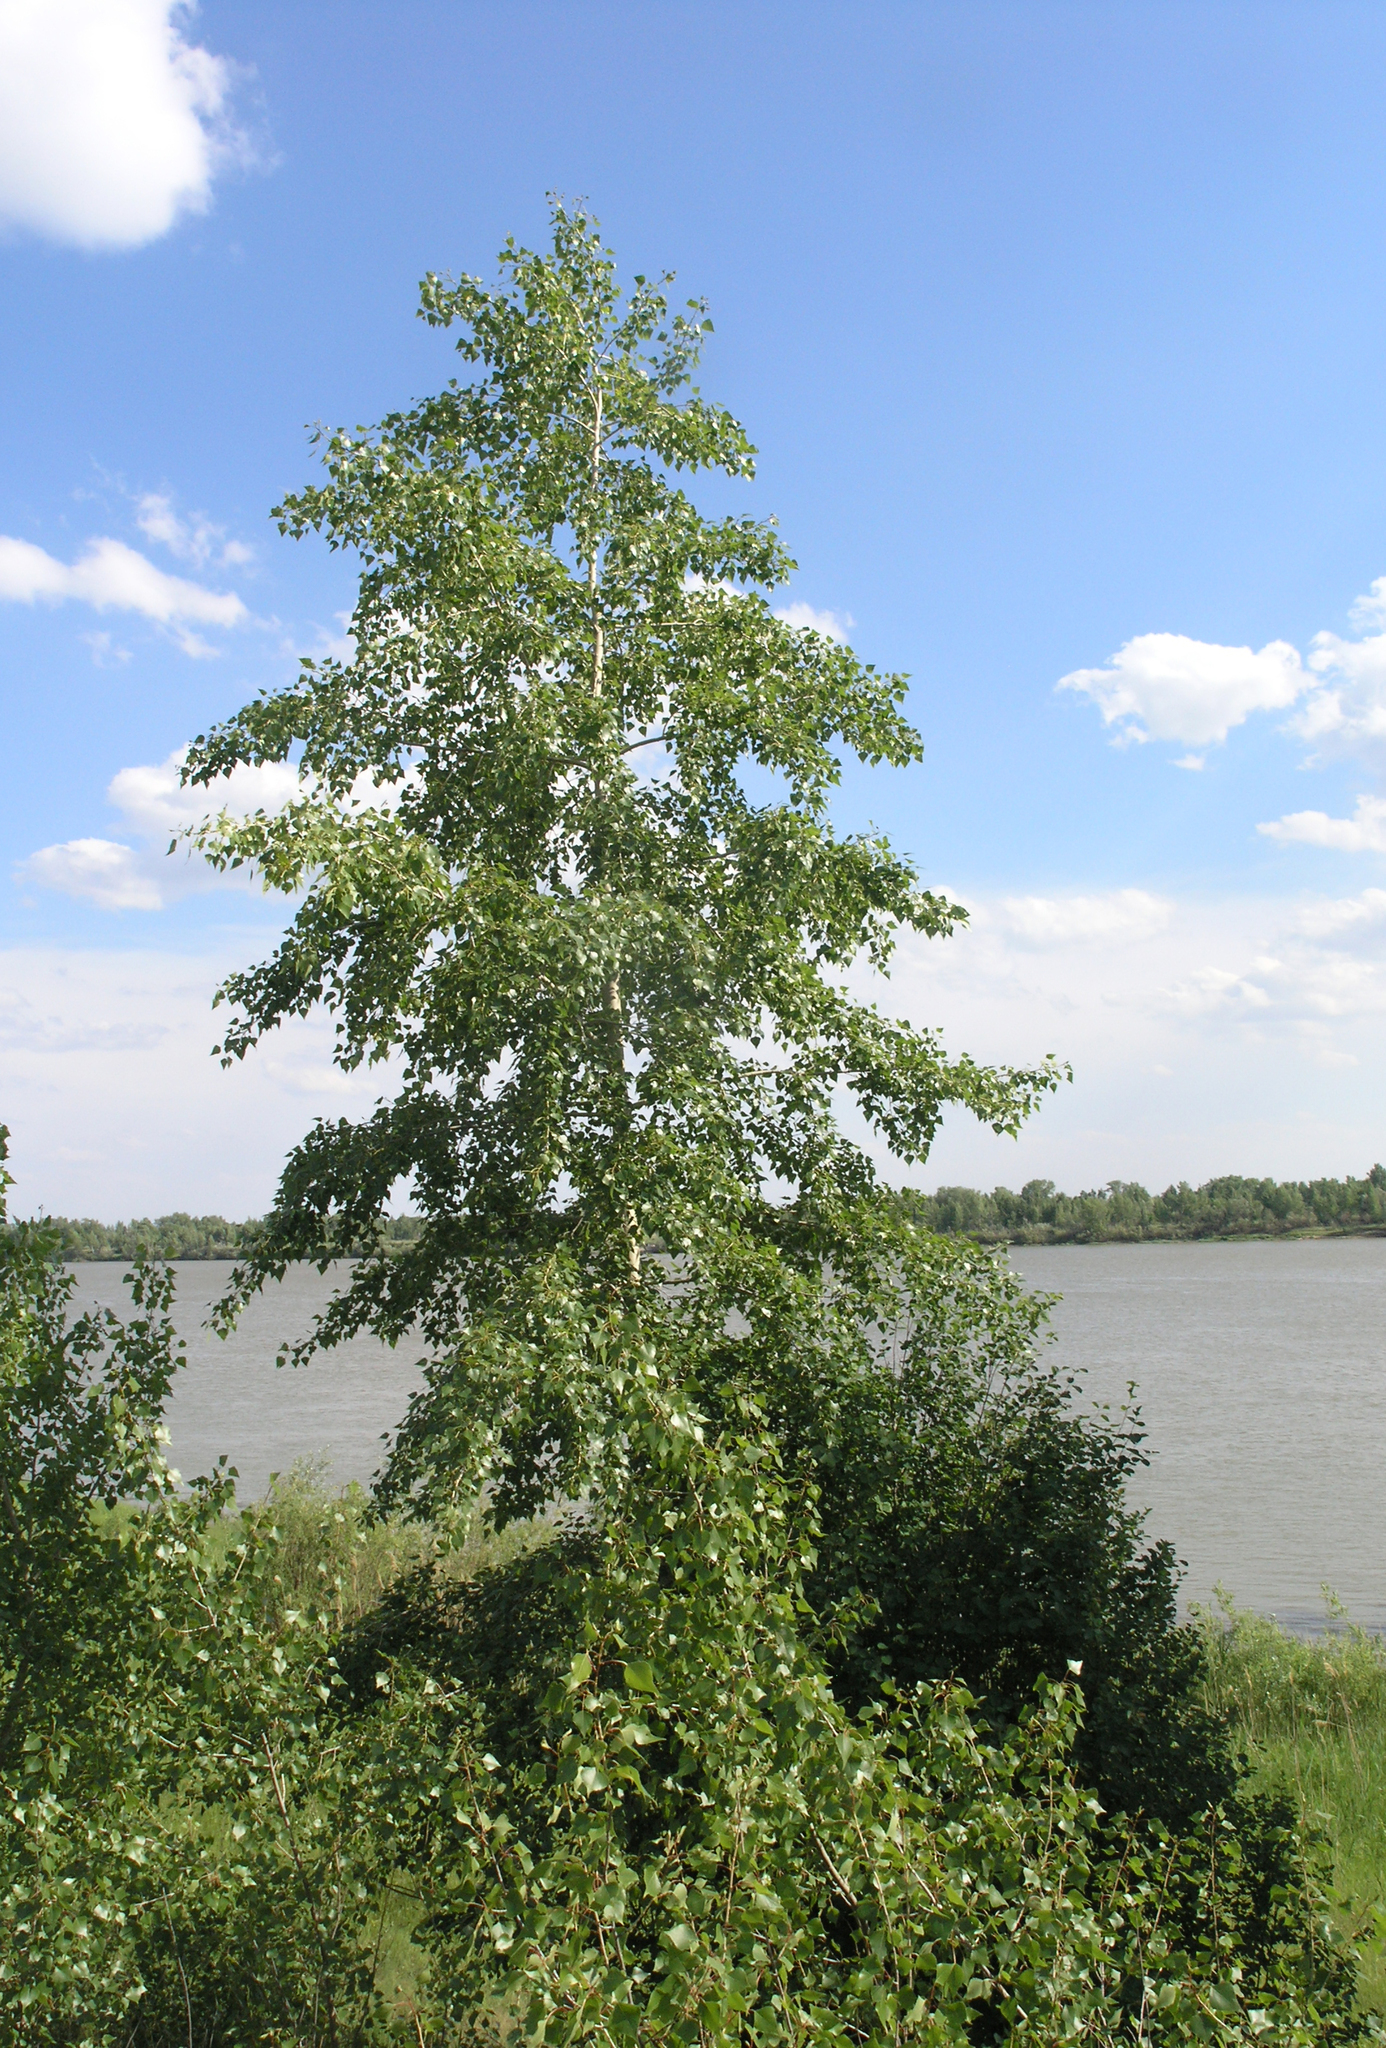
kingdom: Plantae
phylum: Tracheophyta
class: Magnoliopsida
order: Malpighiales
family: Salicaceae
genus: Populus
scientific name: Populus nigra
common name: Black poplar
